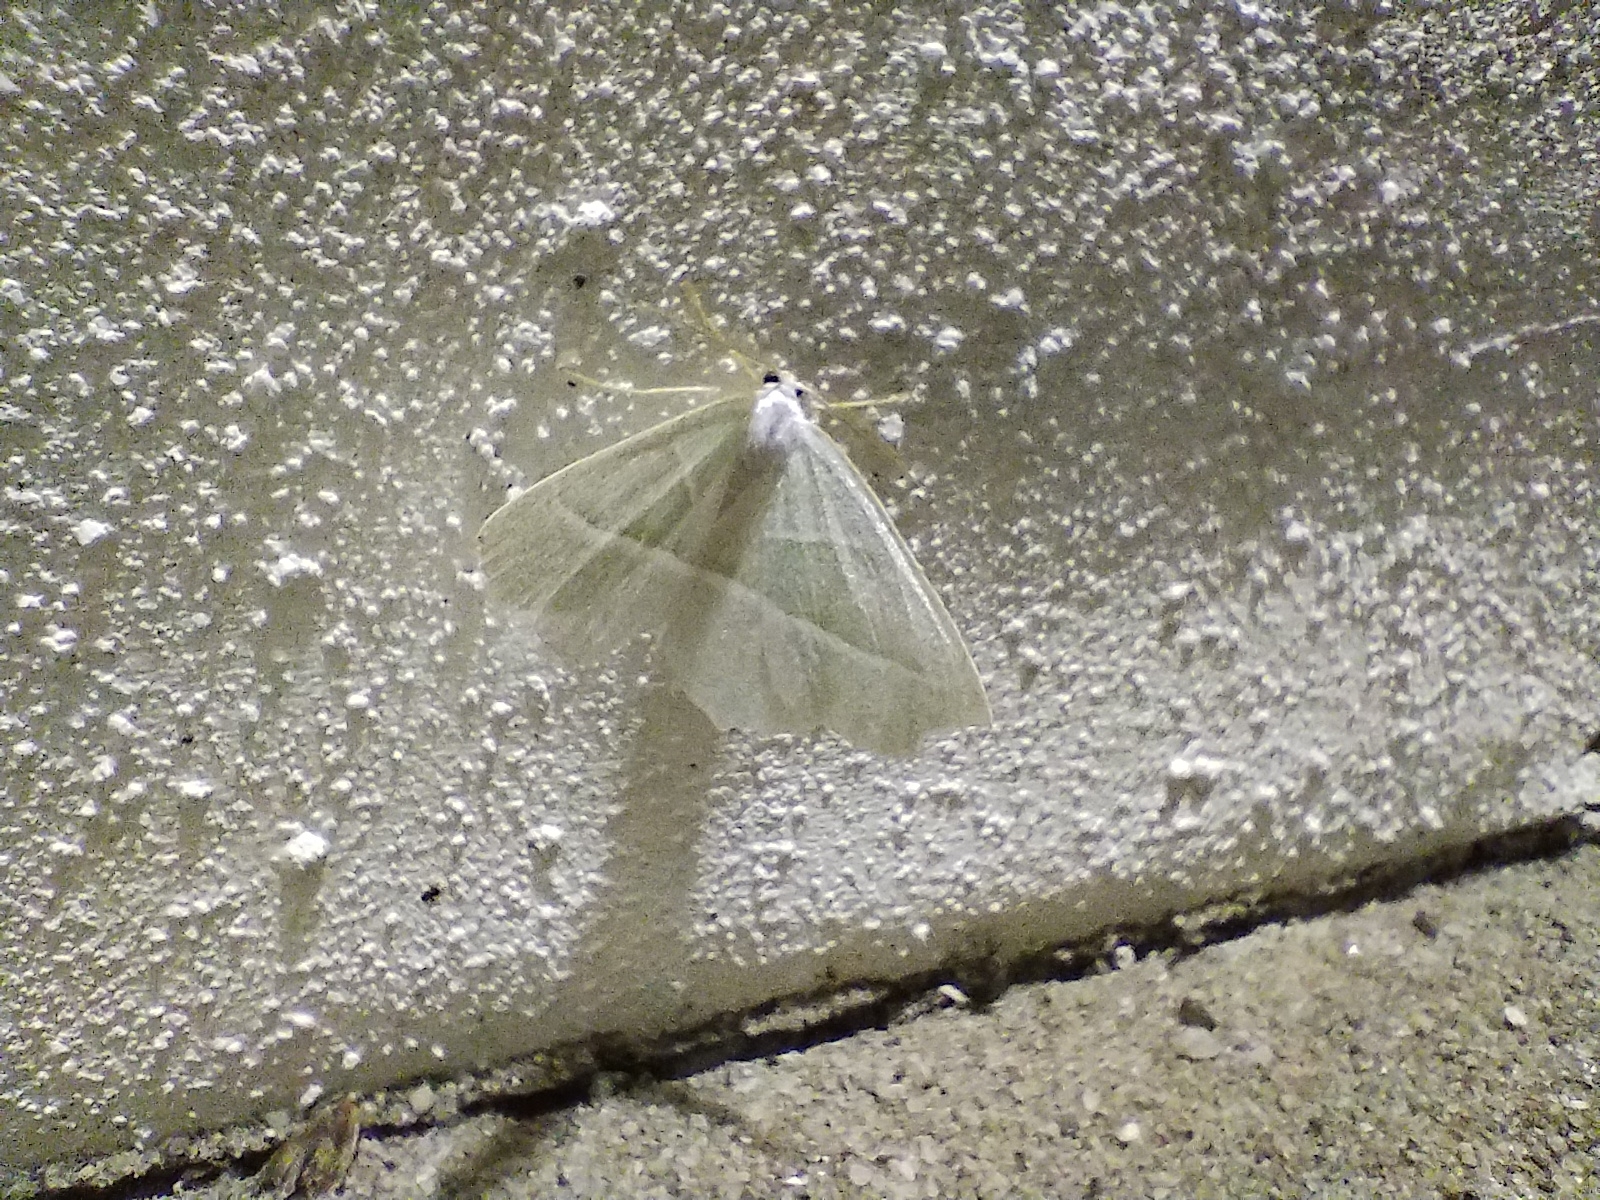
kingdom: Animalia
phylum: Arthropoda
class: Insecta
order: Lepidoptera
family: Geometridae
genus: Campaea
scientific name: Campaea margaritaria
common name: Light emerald
